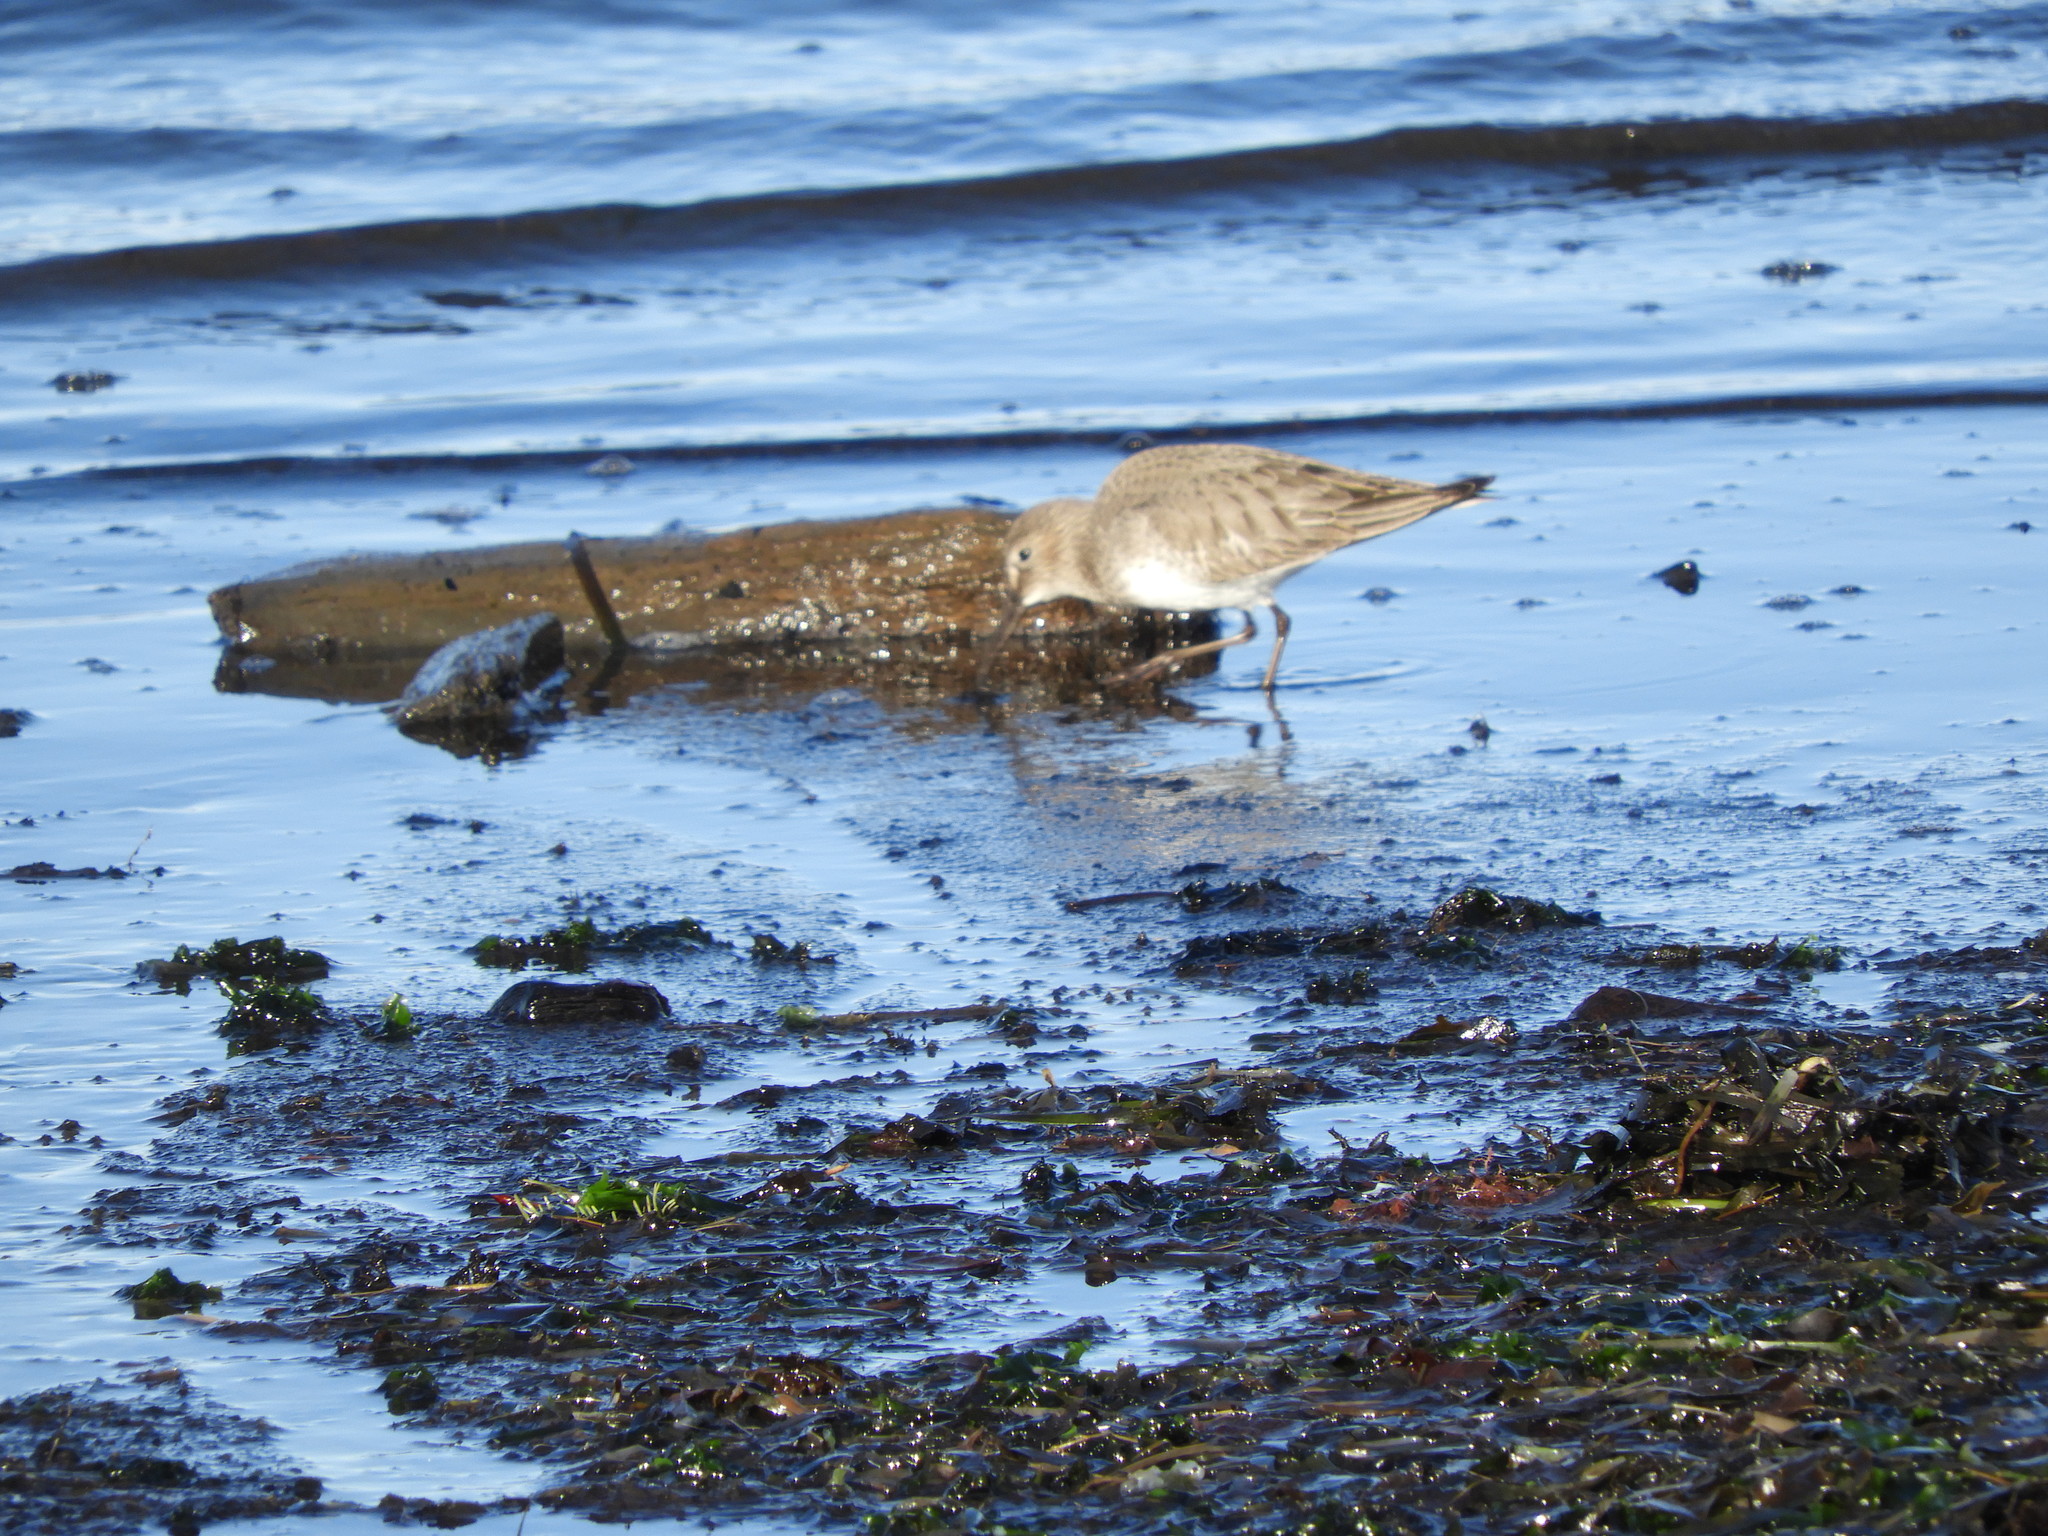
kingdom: Animalia
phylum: Chordata
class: Aves
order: Charadriiformes
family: Scolopacidae
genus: Calidris
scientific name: Calidris alpina
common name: Dunlin
